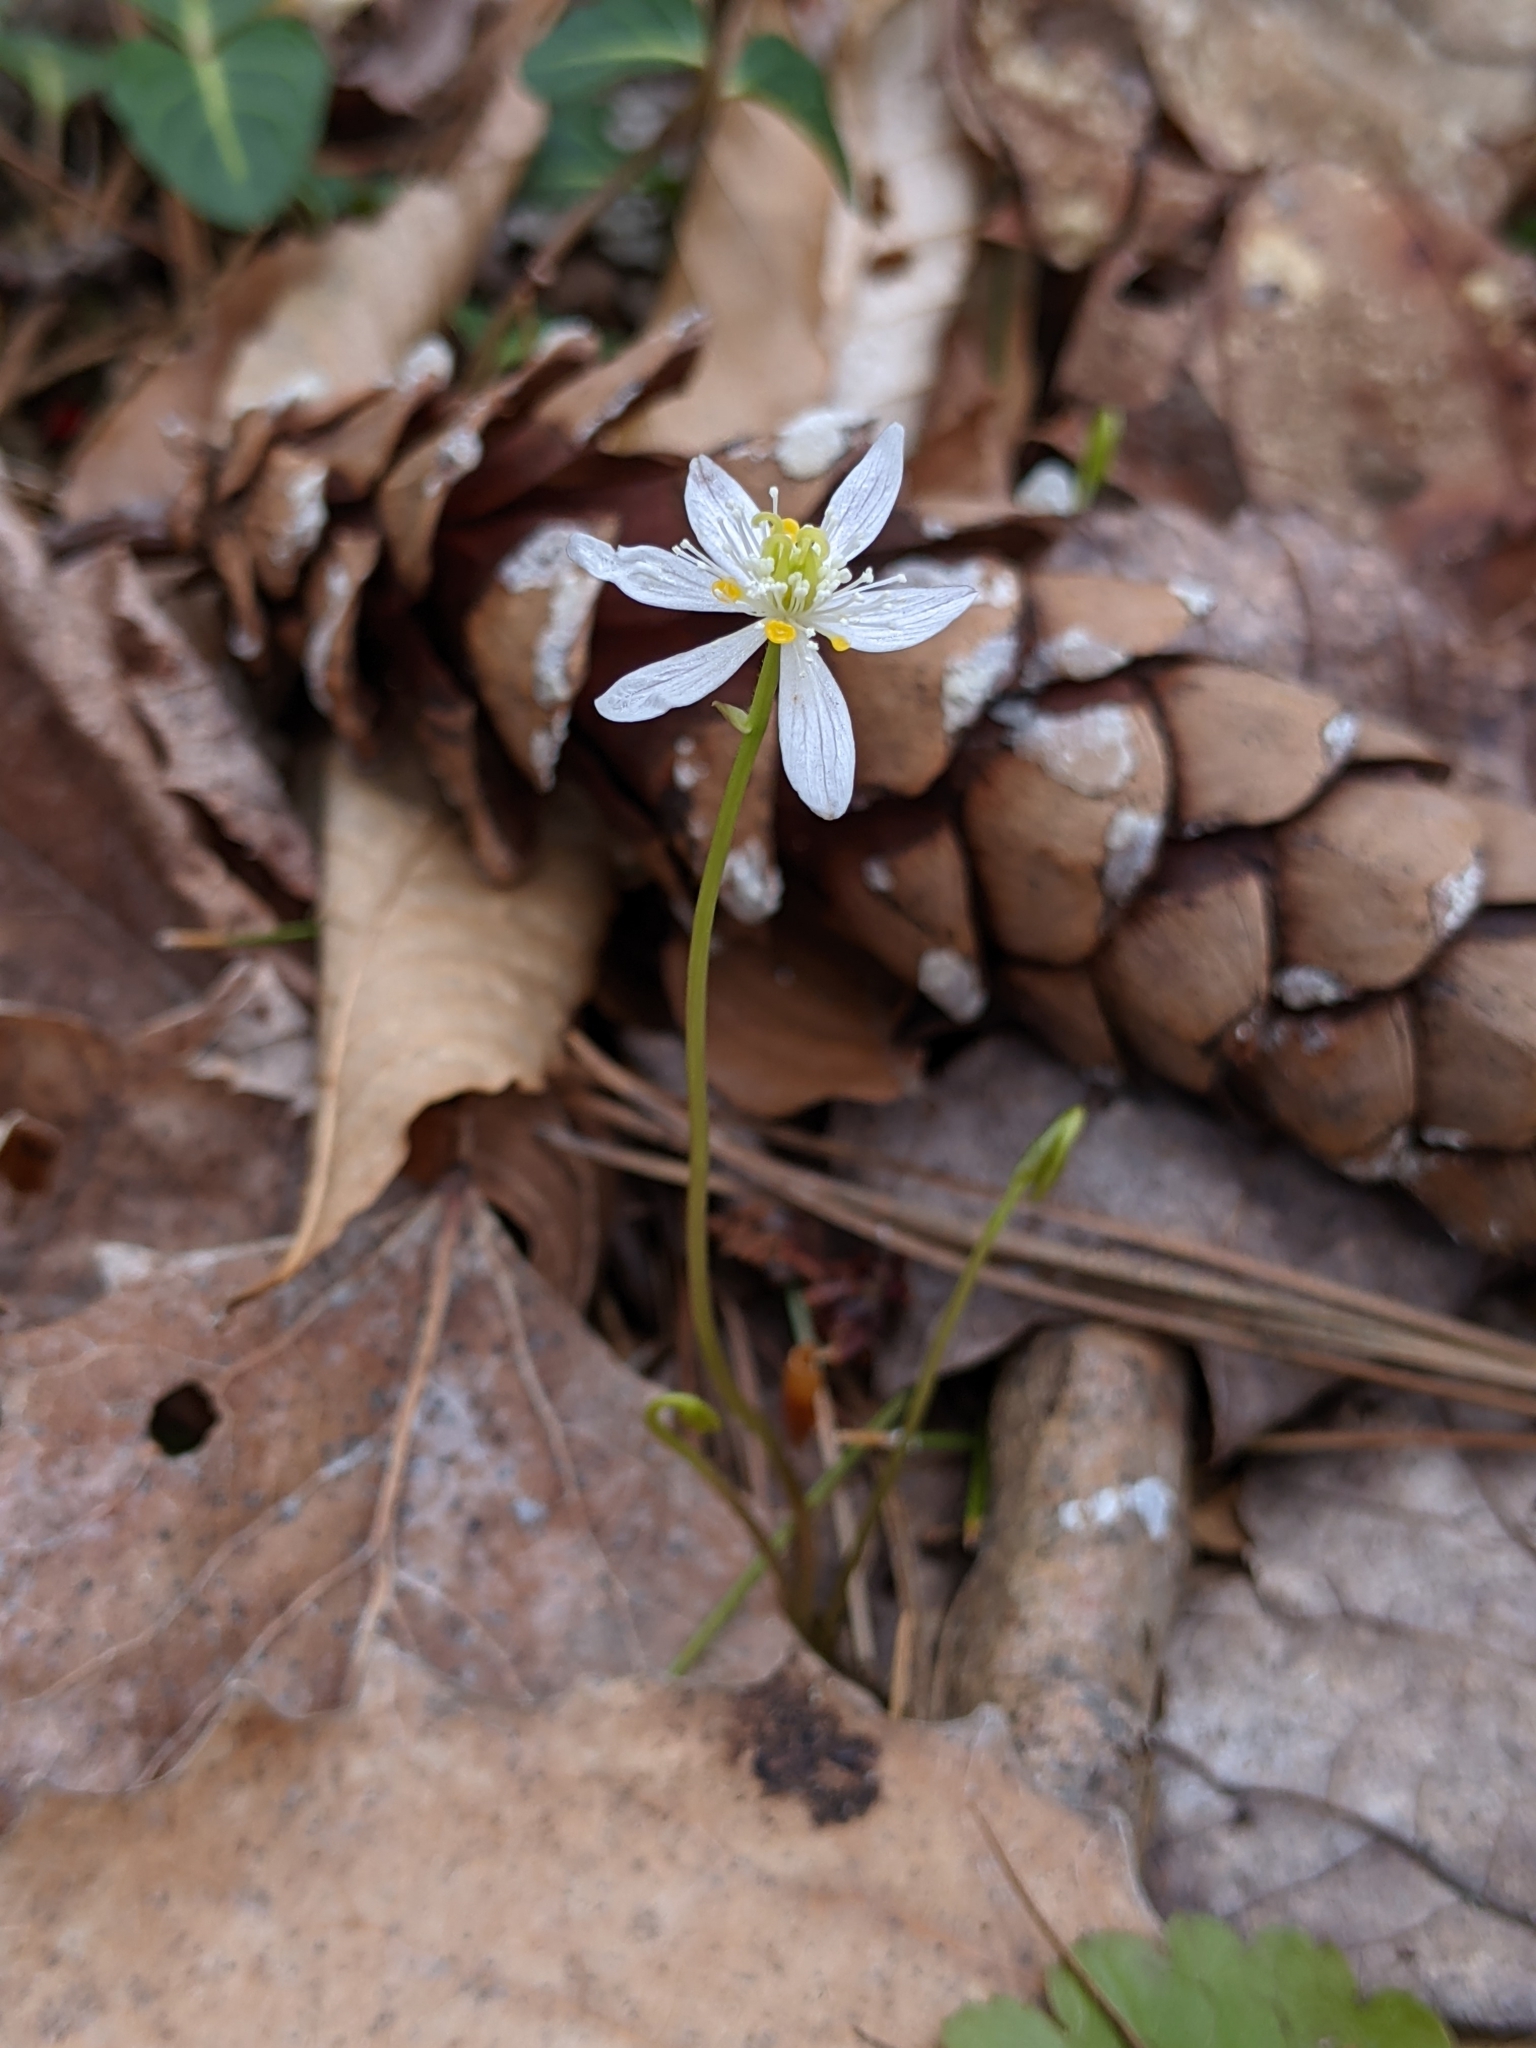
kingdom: Plantae
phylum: Tracheophyta
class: Magnoliopsida
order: Ranunculales
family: Ranunculaceae
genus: Coptis
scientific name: Coptis trifolia
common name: Canker-root
